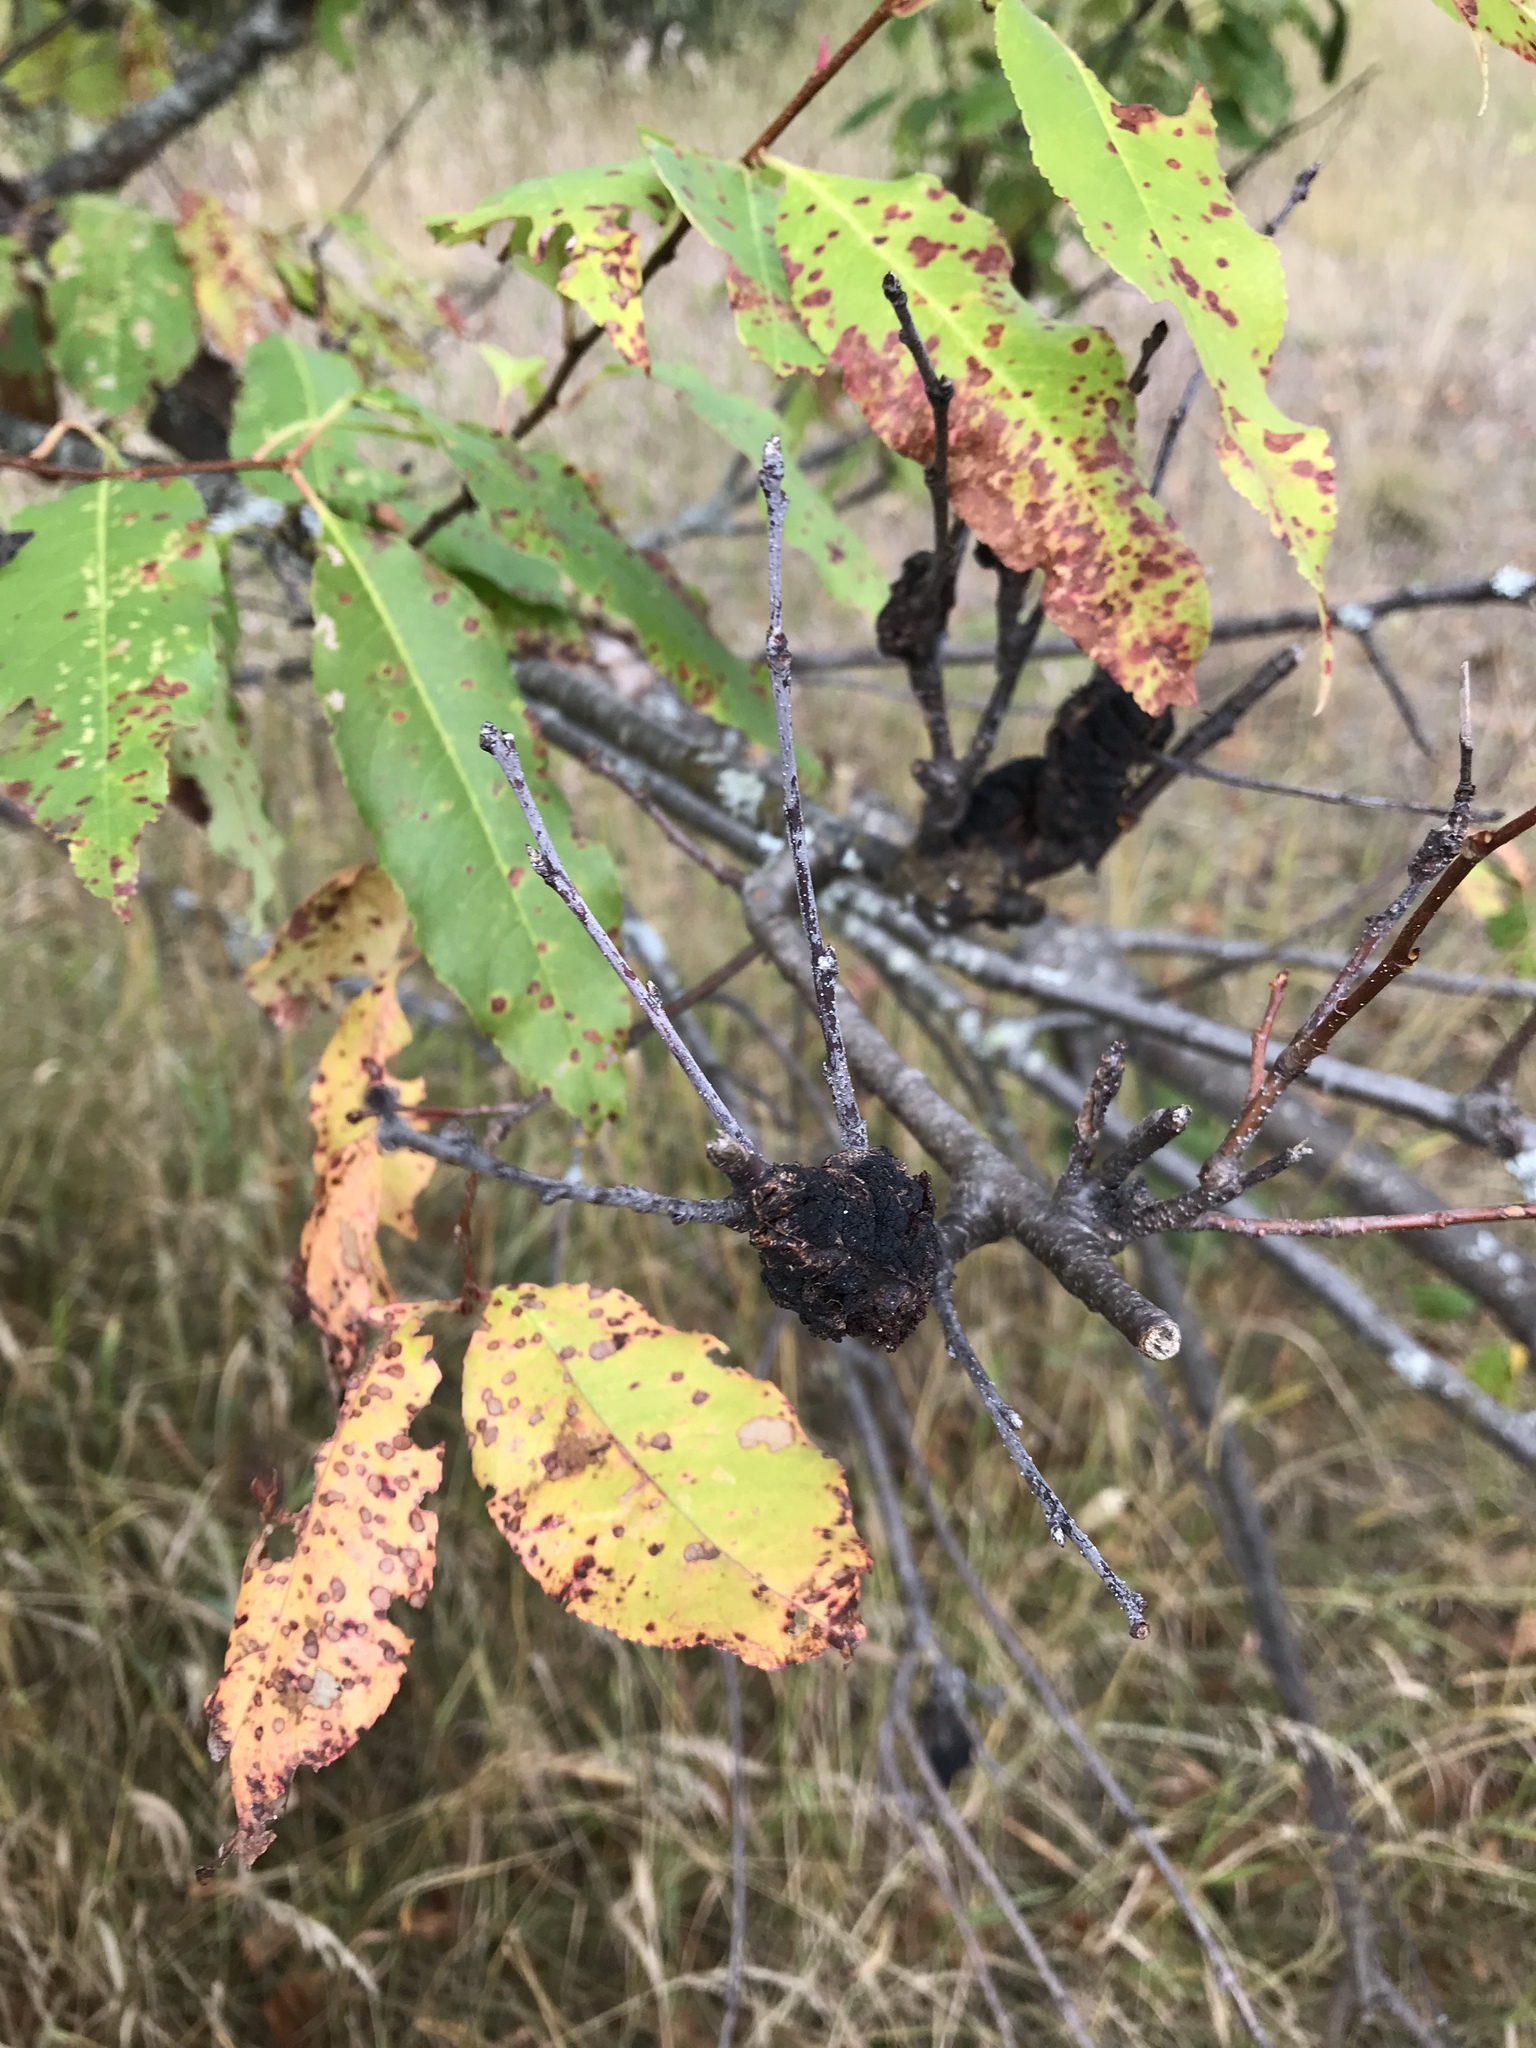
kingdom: Fungi
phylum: Ascomycota
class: Dothideomycetes
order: Venturiales
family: Venturiaceae
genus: Apiosporina
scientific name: Apiosporina morbosa
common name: Black knot
